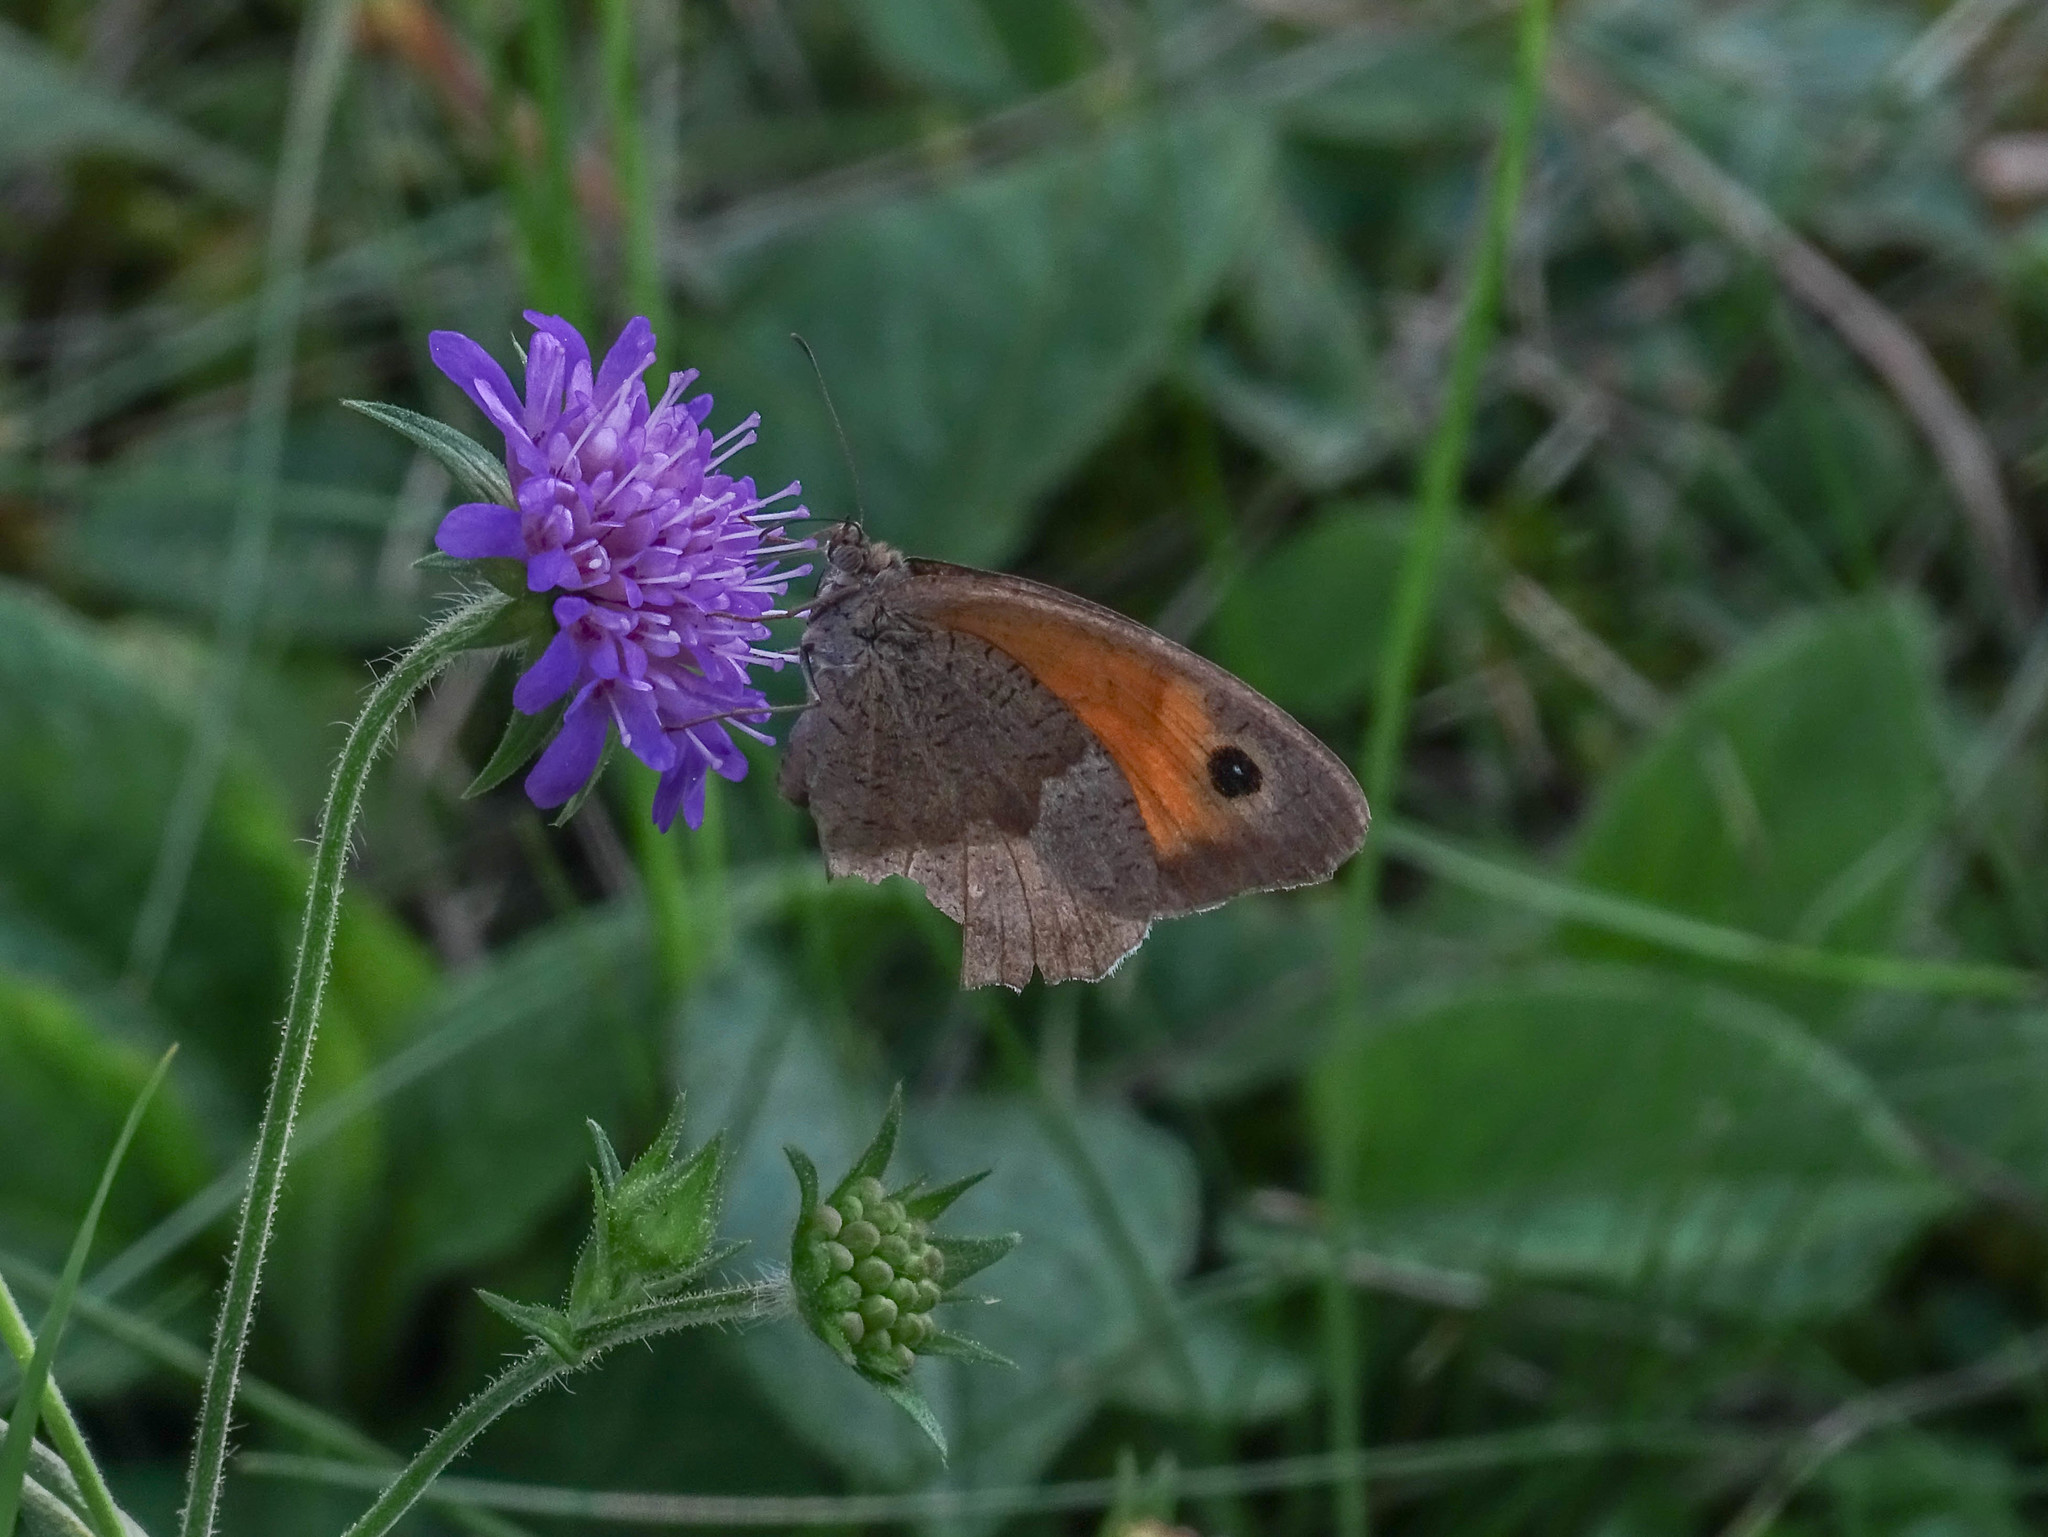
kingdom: Animalia
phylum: Arthropoda
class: Insecta
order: Lepidoptera
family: Nymphalidae
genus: Maniola
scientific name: Maniola jurtina
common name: Meadow brown
